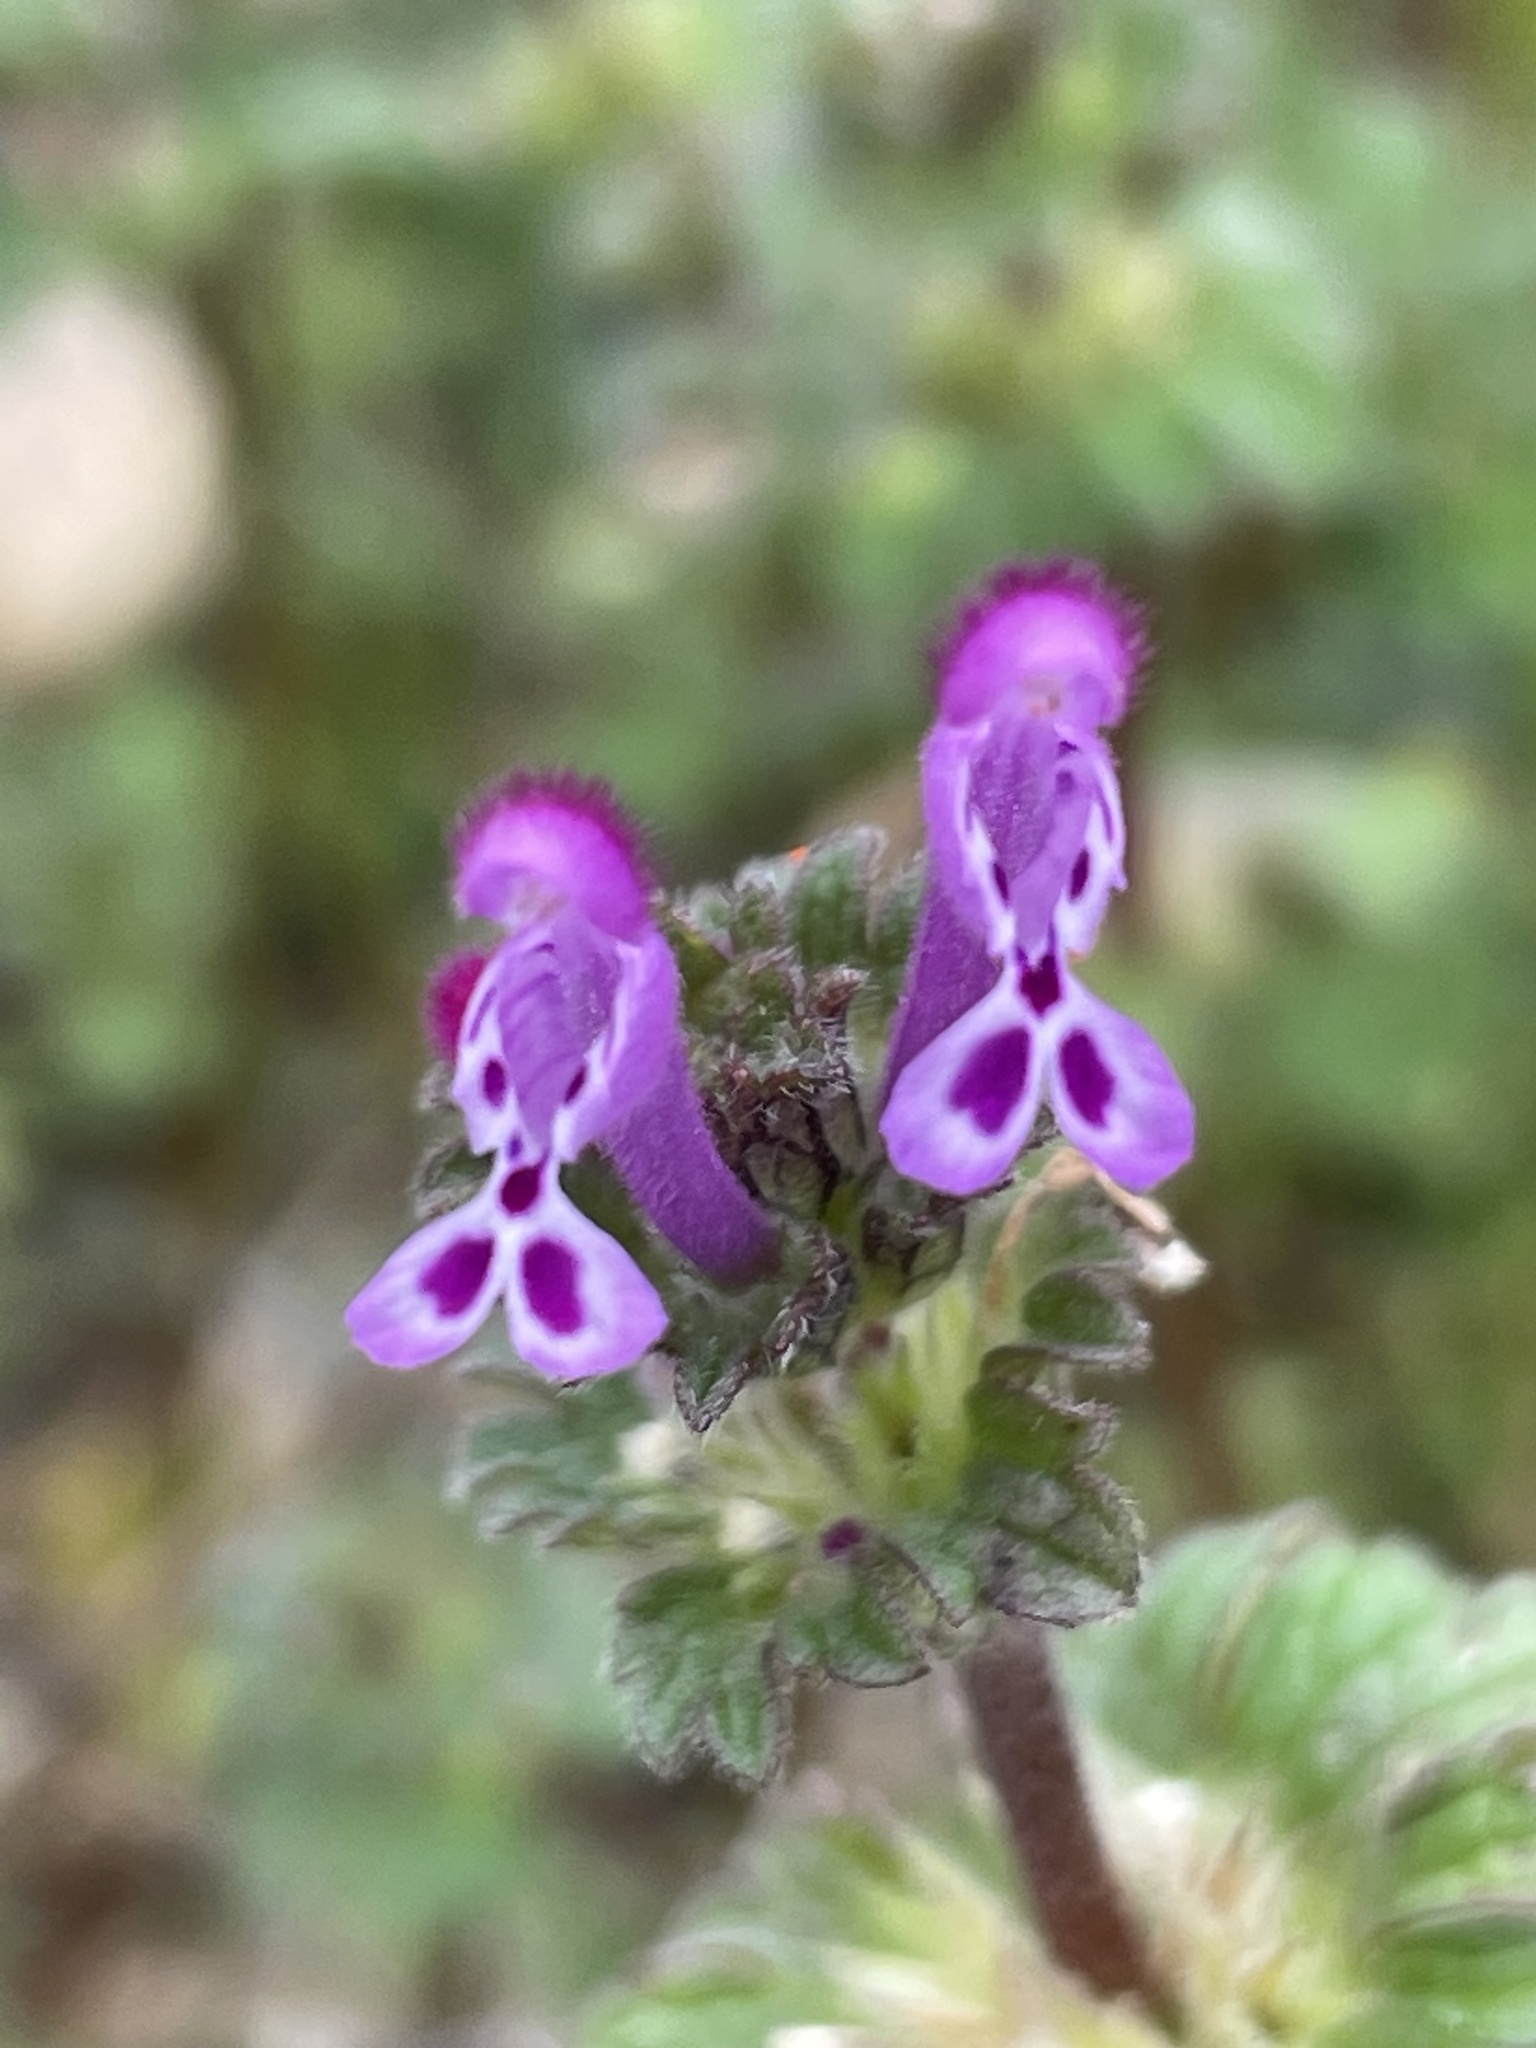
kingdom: Plantae
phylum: Tracheophyta
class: Magnoliopsida
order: Lamiales
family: Lamiaceae
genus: Lamium
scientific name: Lamium amplexicaule
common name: Henbit dead-nettle
